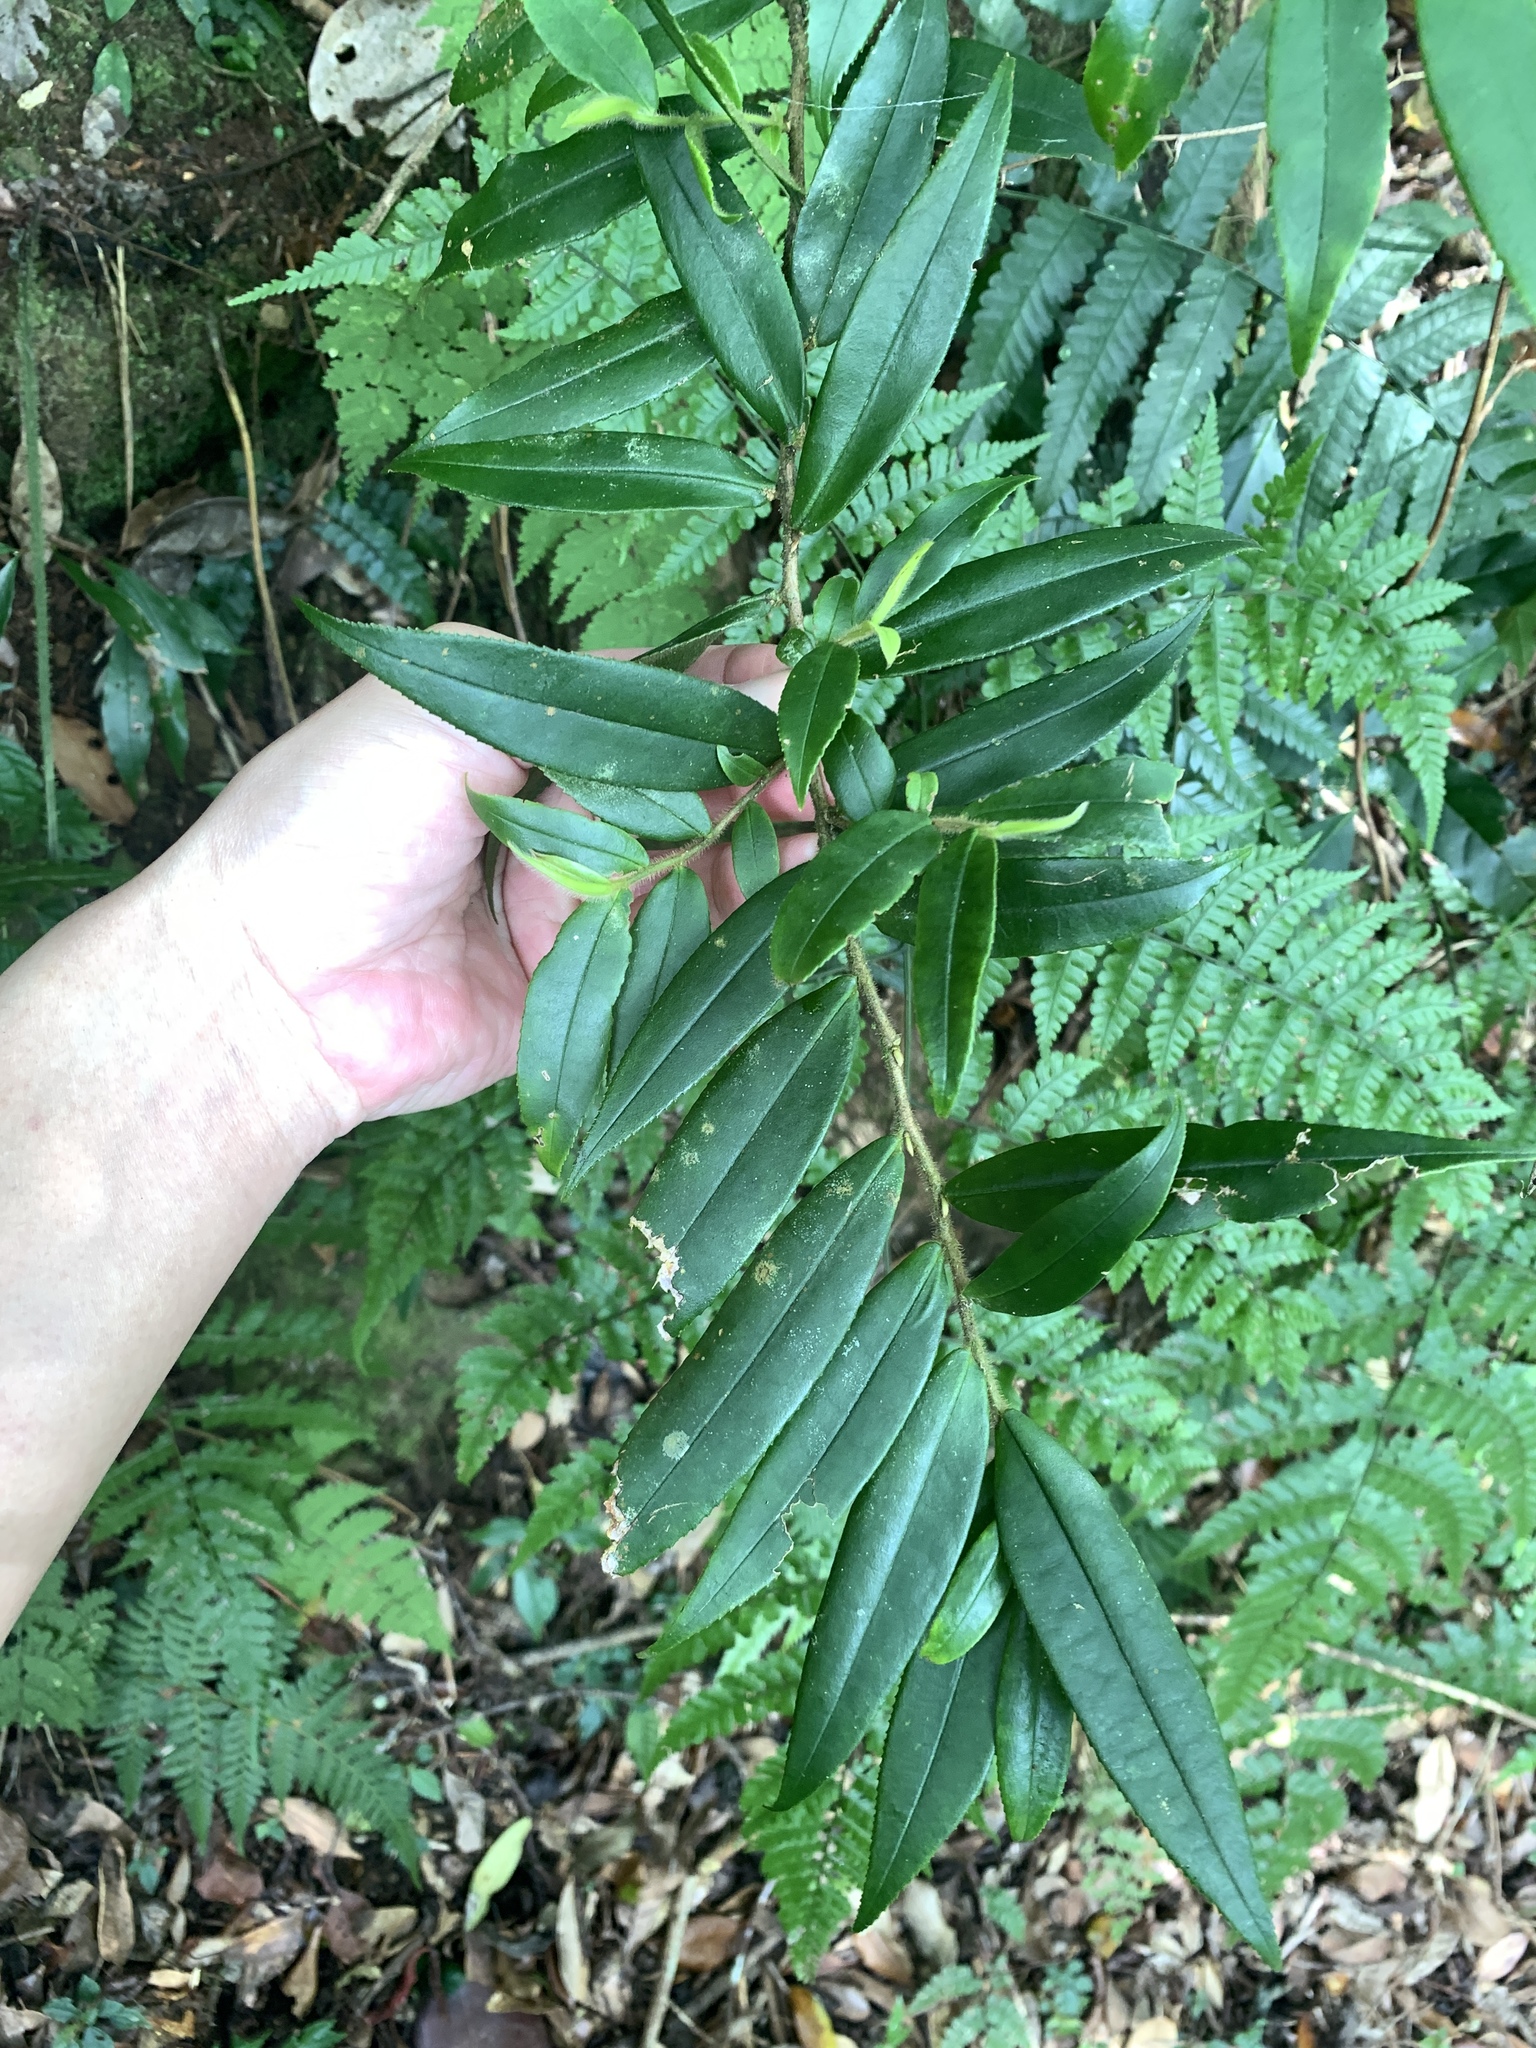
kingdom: Plantae
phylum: Tracheophyta
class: Magnoliopsida
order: Ericales
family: Pentaphylacaceae
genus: Eurya
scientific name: Eurya strigillosa
